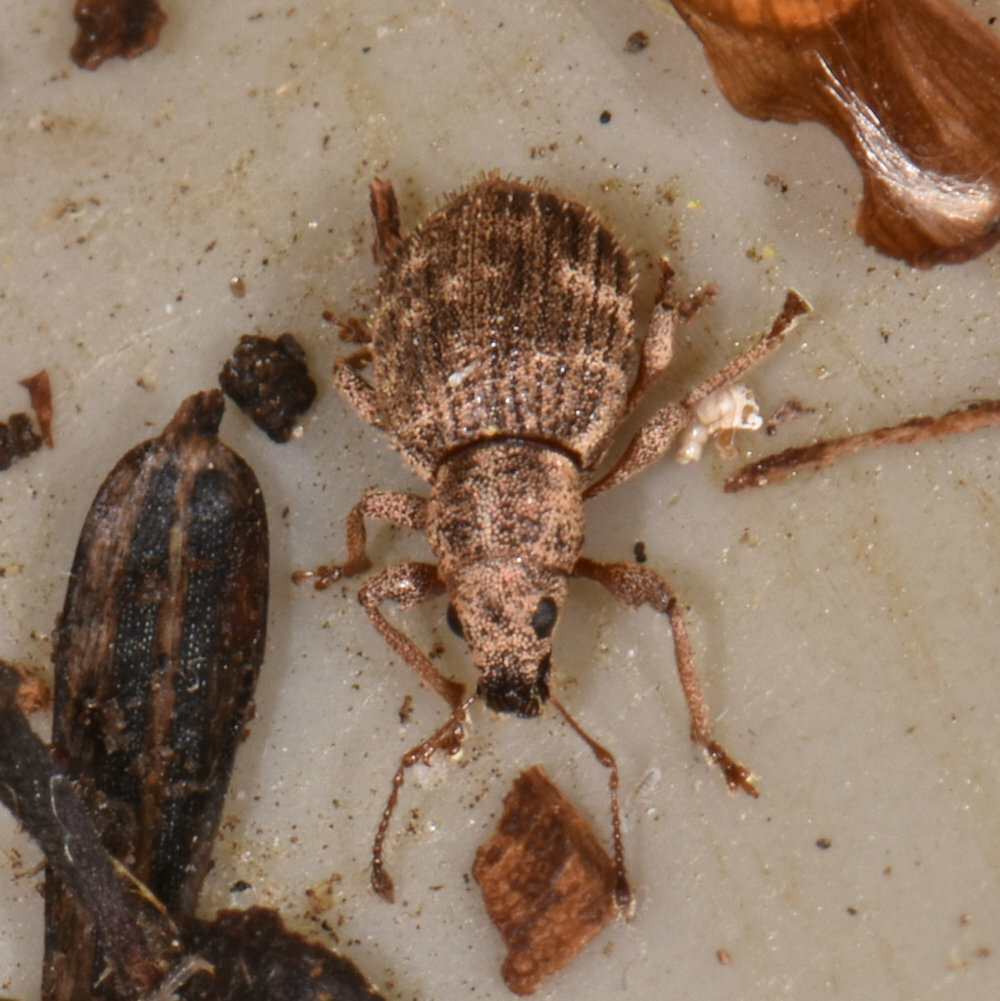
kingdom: Animalia
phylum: Arthropoda
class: Insecta
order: Coleoptera
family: Curculionidae
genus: Sciaphilus
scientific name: Sciaphilus asperatus
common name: Weevil
